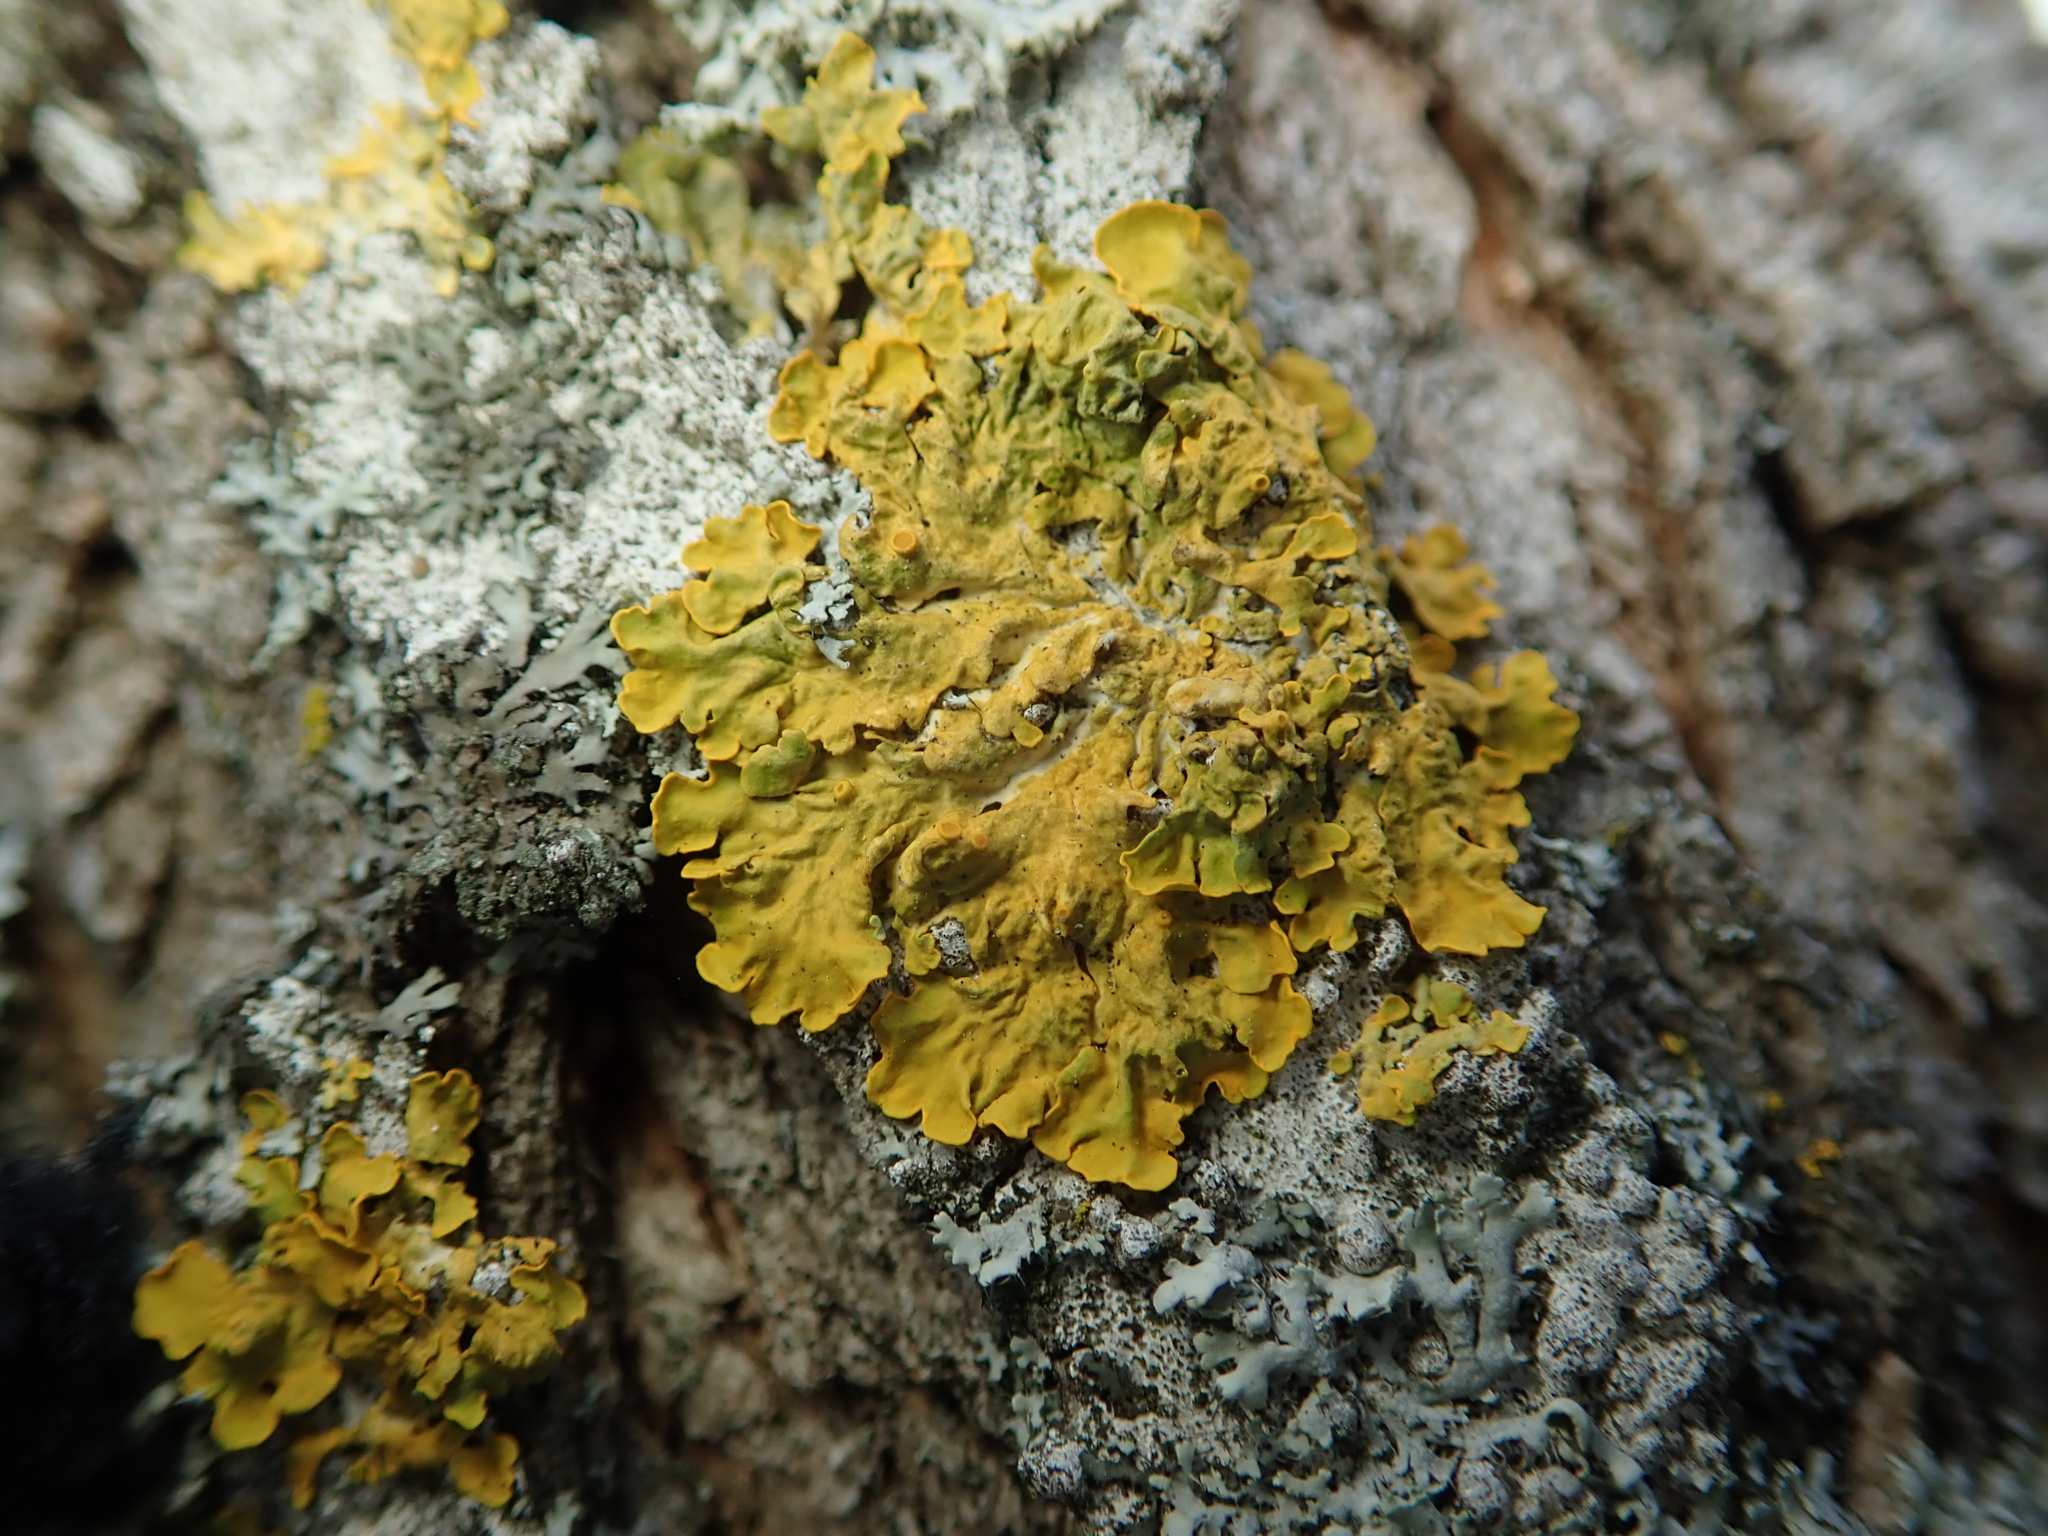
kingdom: Fungi
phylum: Ascomycota
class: Lecanoromycetes
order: Teloschistales
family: Teloschistaceae
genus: Xanthoria
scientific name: Xanthoria parietina
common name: Common orange lichen
